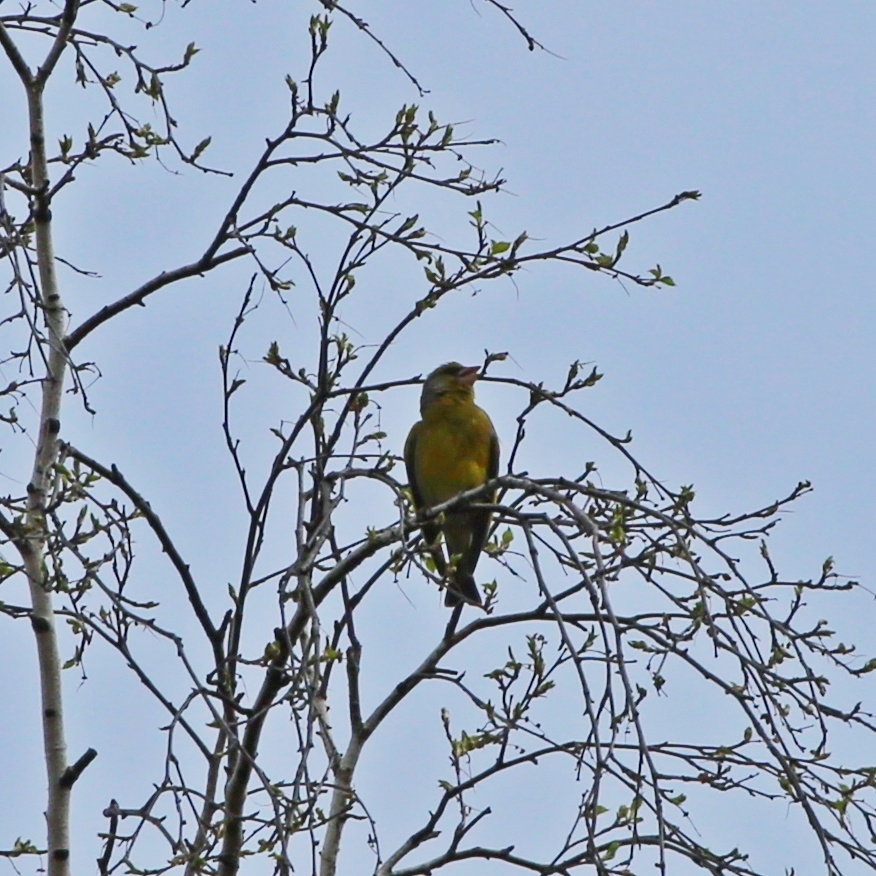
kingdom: Plantae
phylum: Tracheophyta
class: Liliopsida
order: Poales
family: Poaceae
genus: Chloris
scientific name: Chloris chloris
